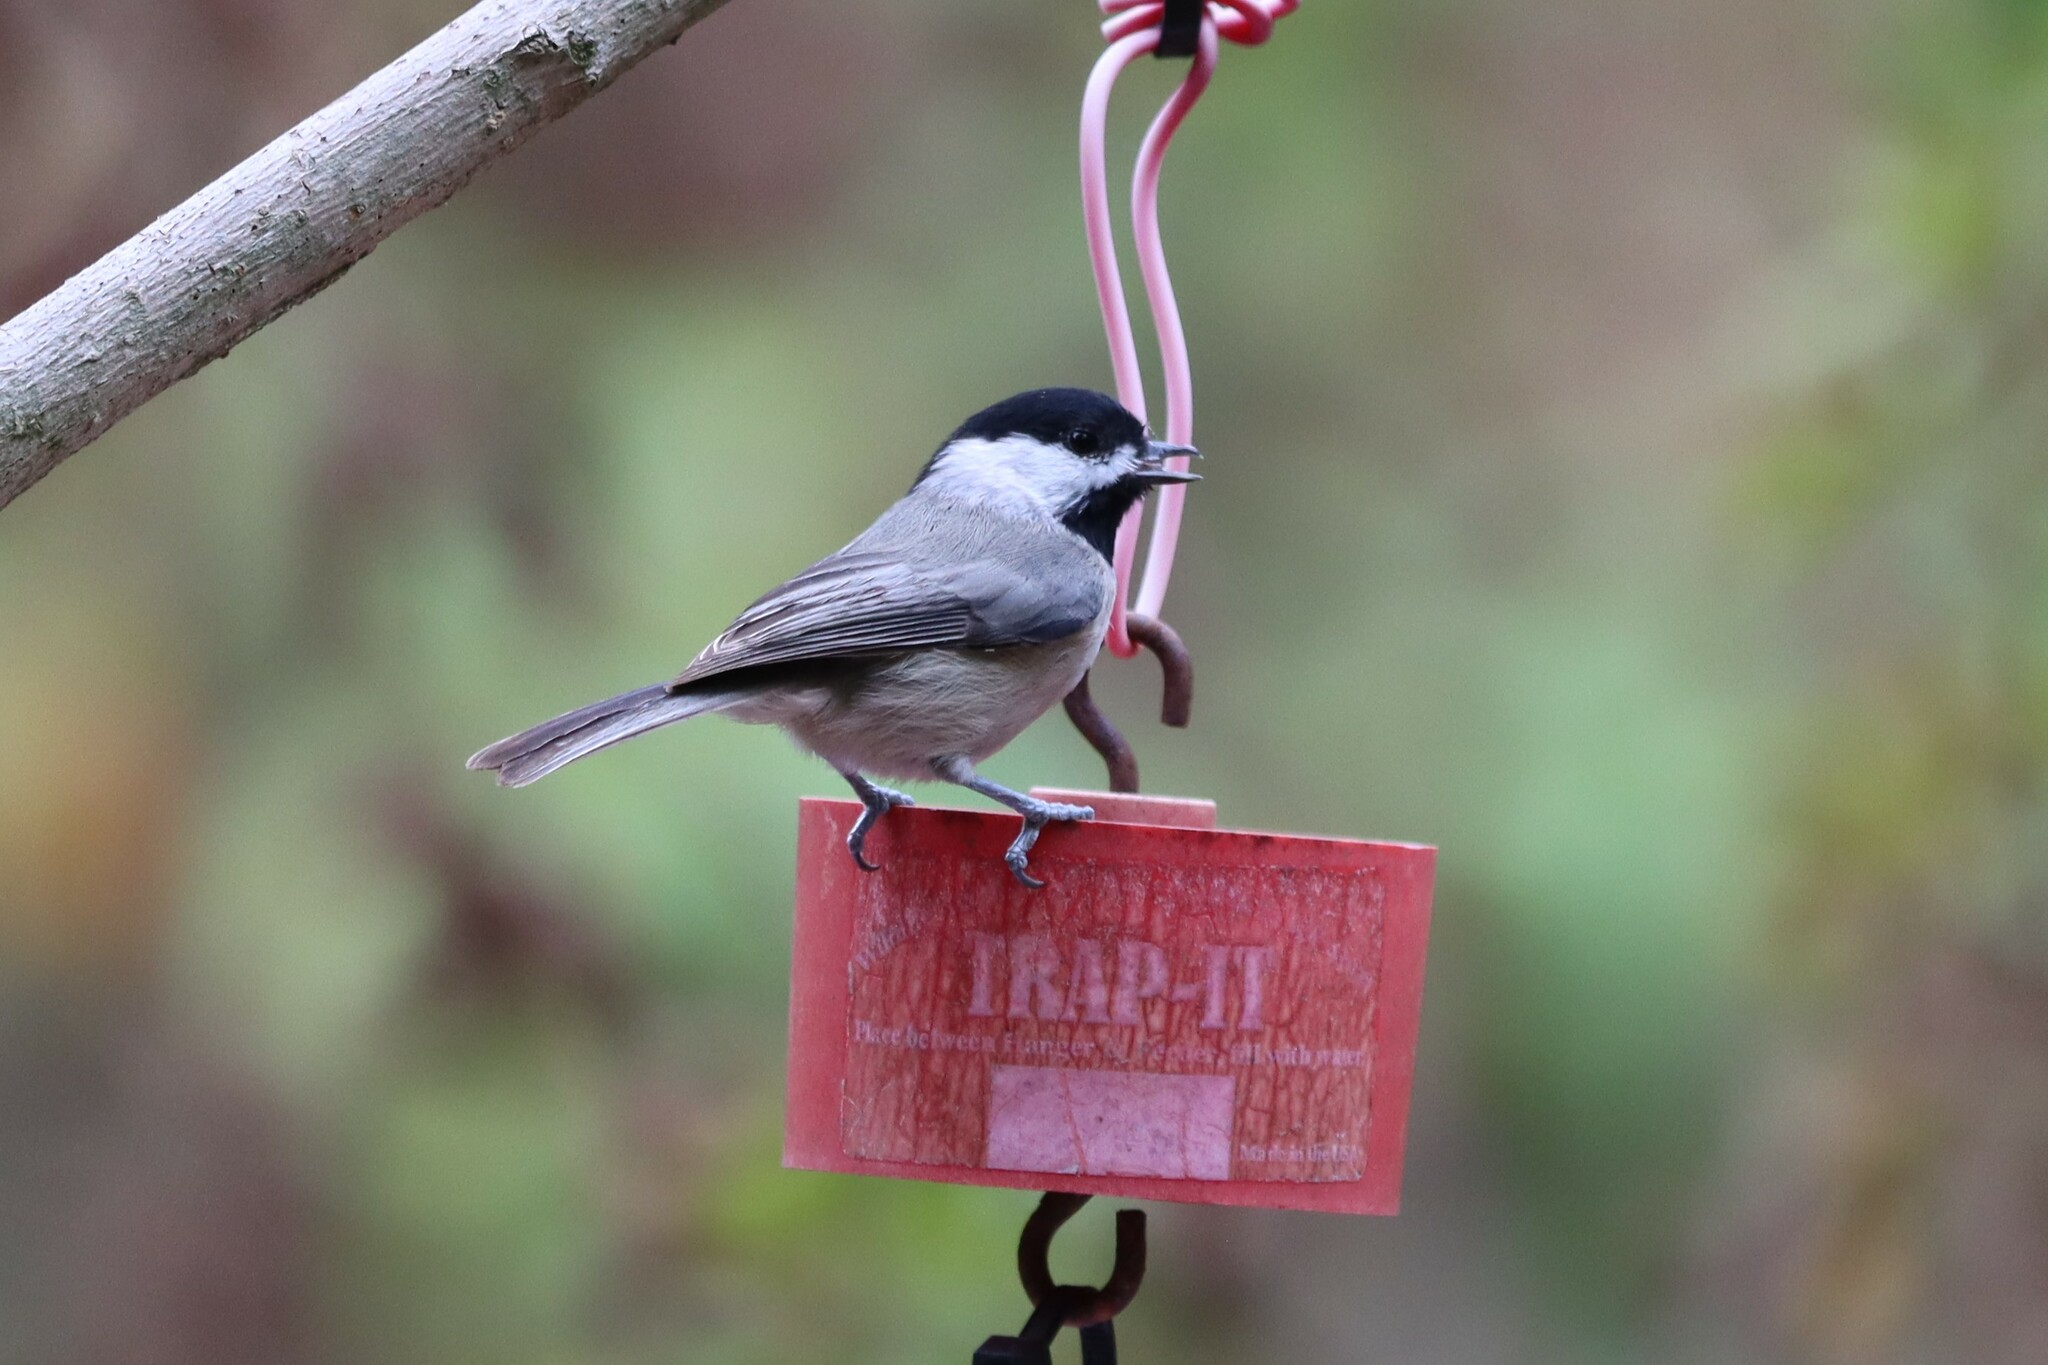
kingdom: Animalia
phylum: Chordata
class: Aves
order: Passeriformes
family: Paridae
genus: Poecile
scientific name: Poecile carolinensis
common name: Carolina chickadee
